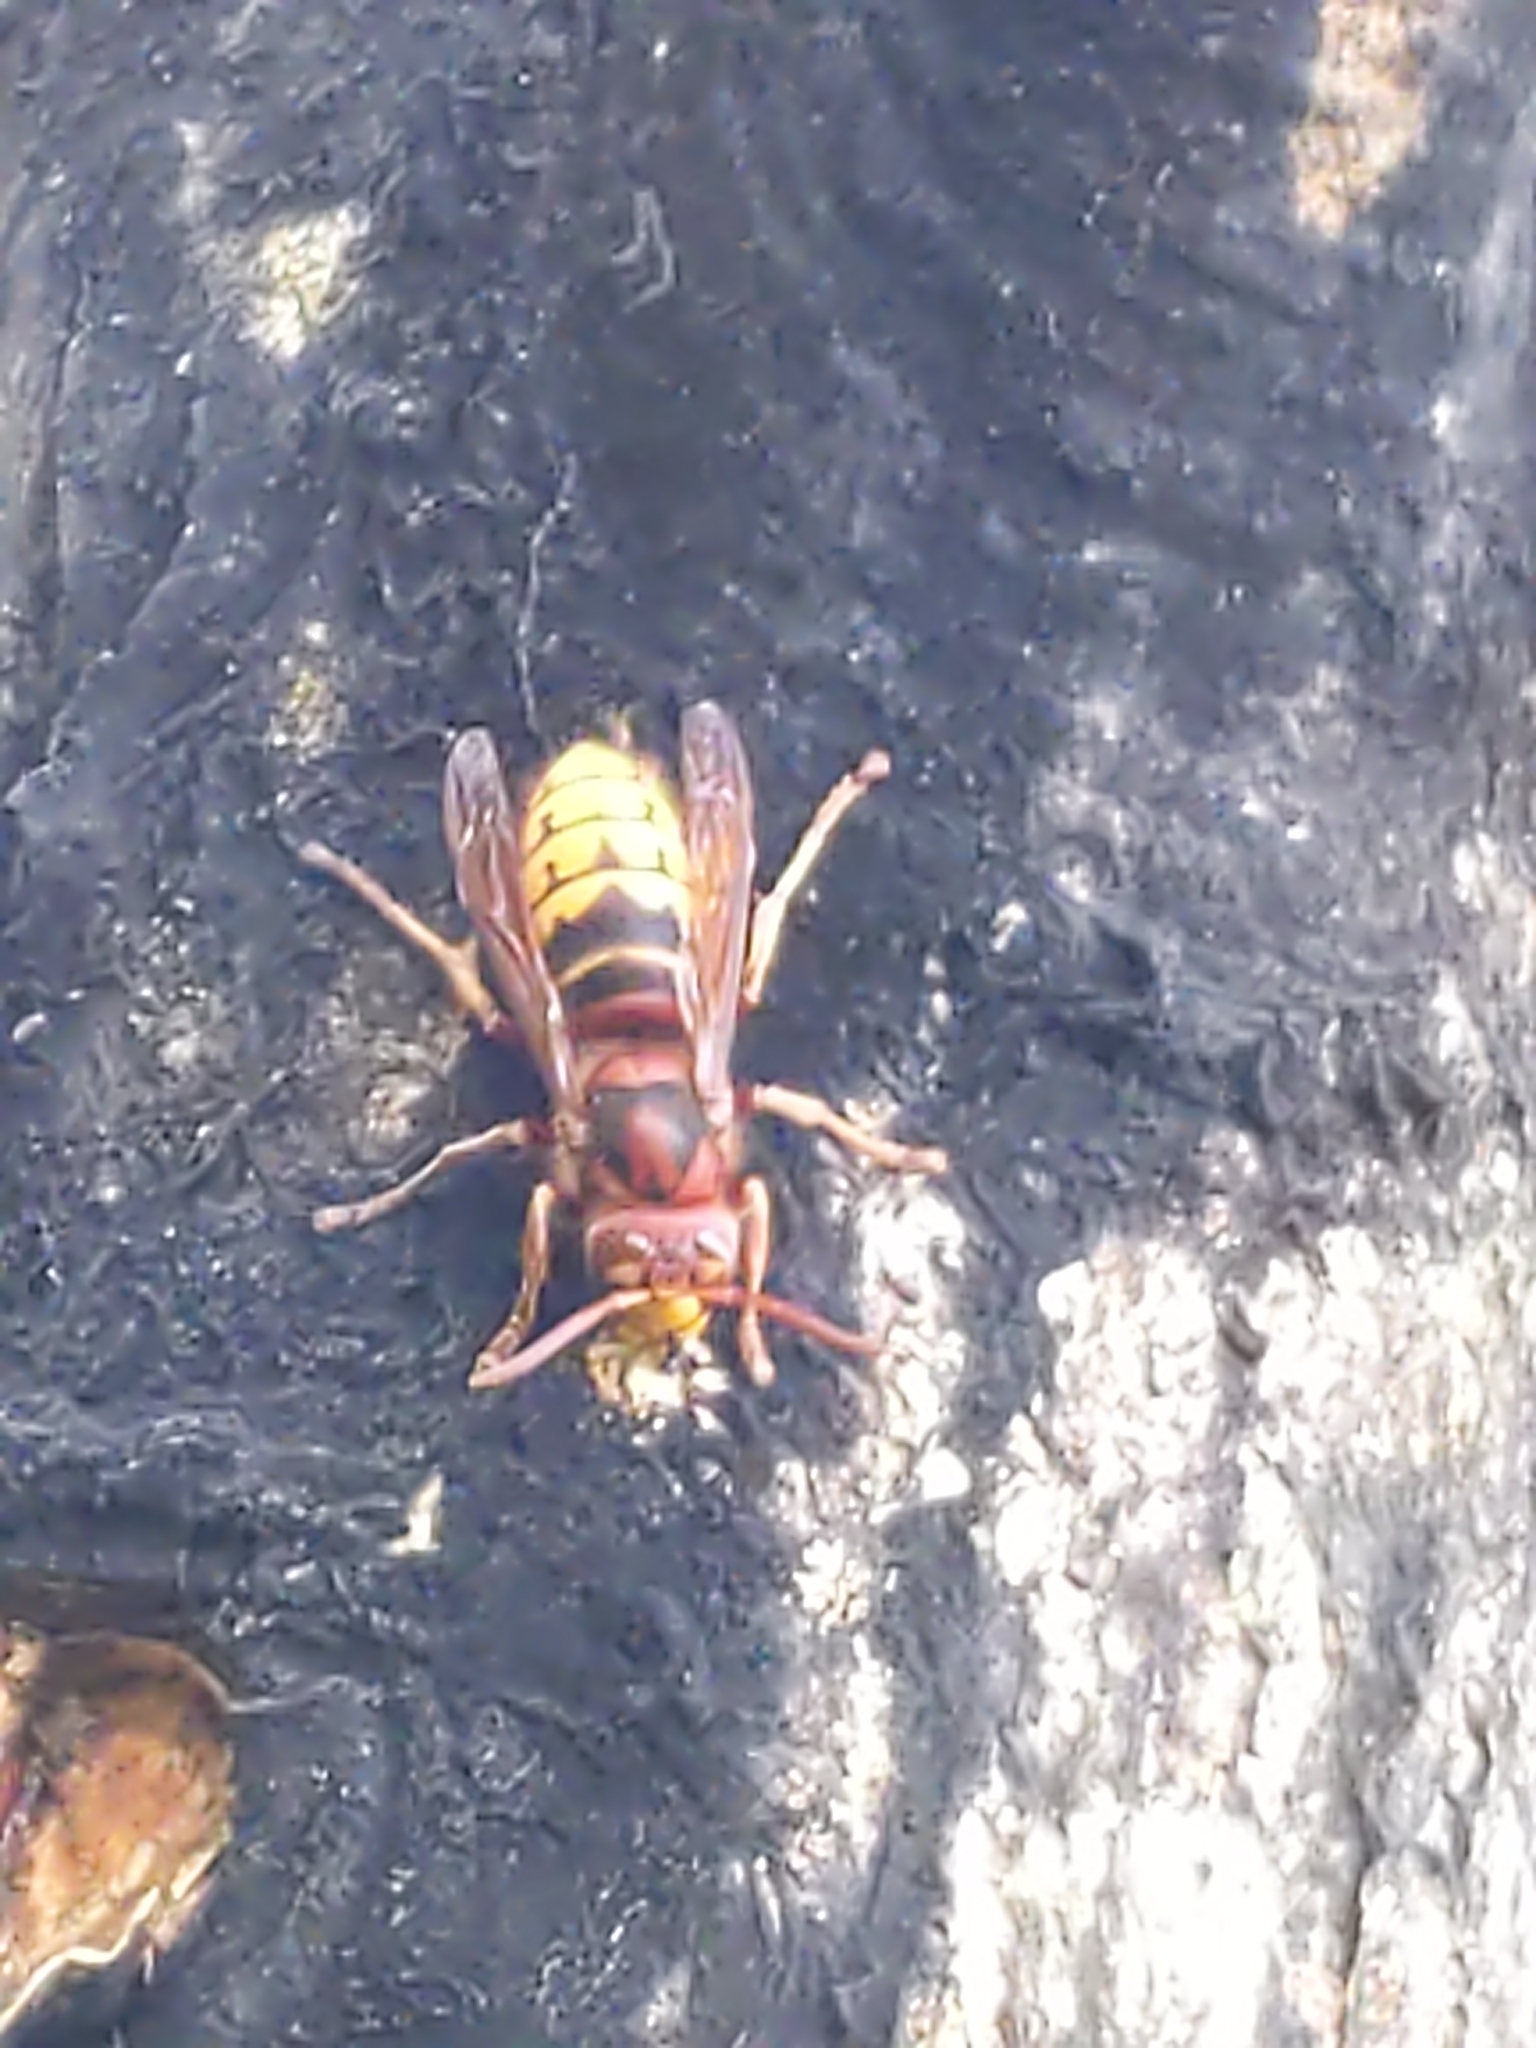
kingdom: Animalia
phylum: Arthropoda
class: Insecta
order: Hymenoptera
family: Vespidae
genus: Vespa
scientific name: Vespa crabro
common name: Hornet
